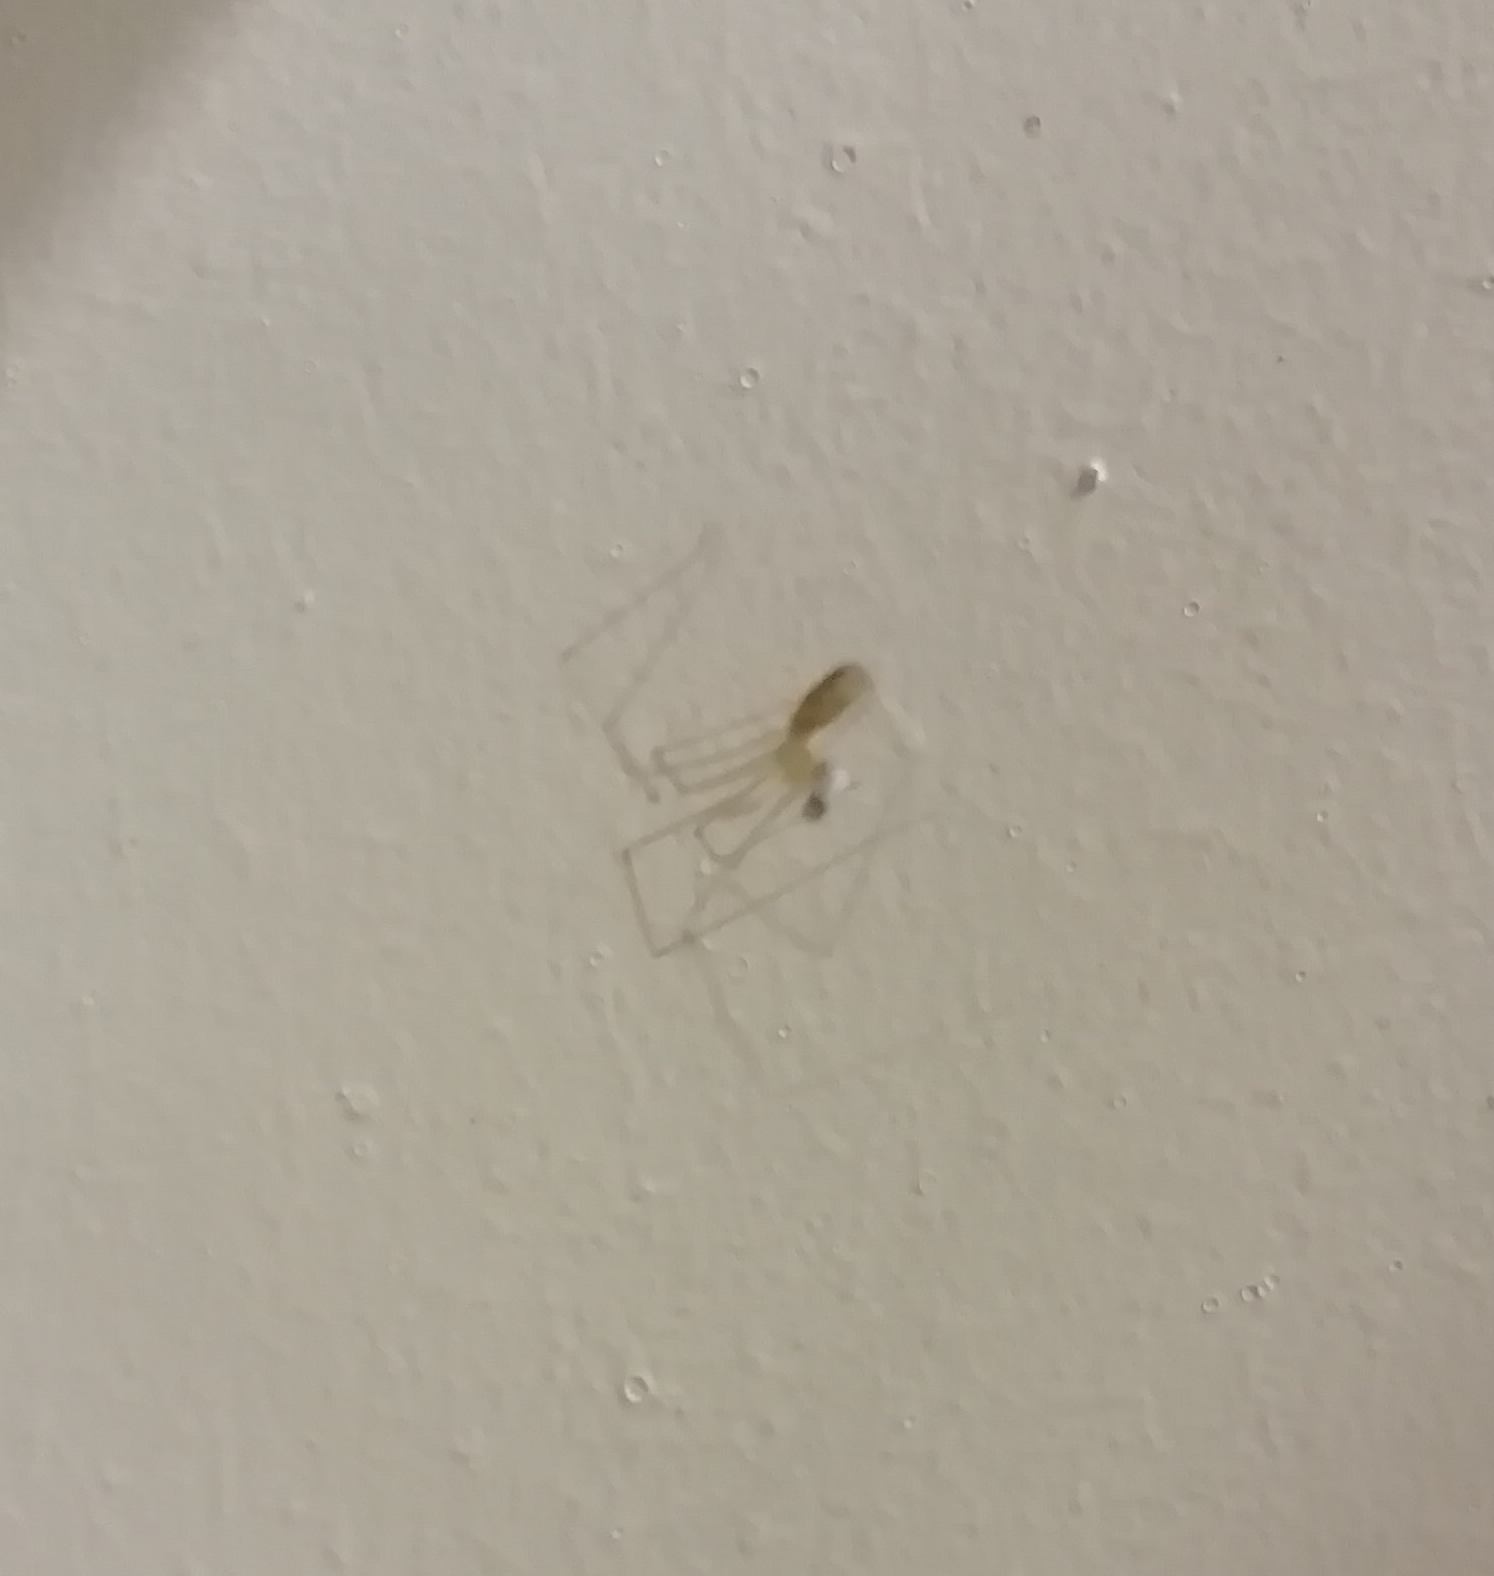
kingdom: Animalia
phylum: Arthropoda
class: Arachnida
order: Araneae
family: Pholcidae
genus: Pholcus
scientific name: Pholcus phalangioides
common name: Longbodied cellar spider
